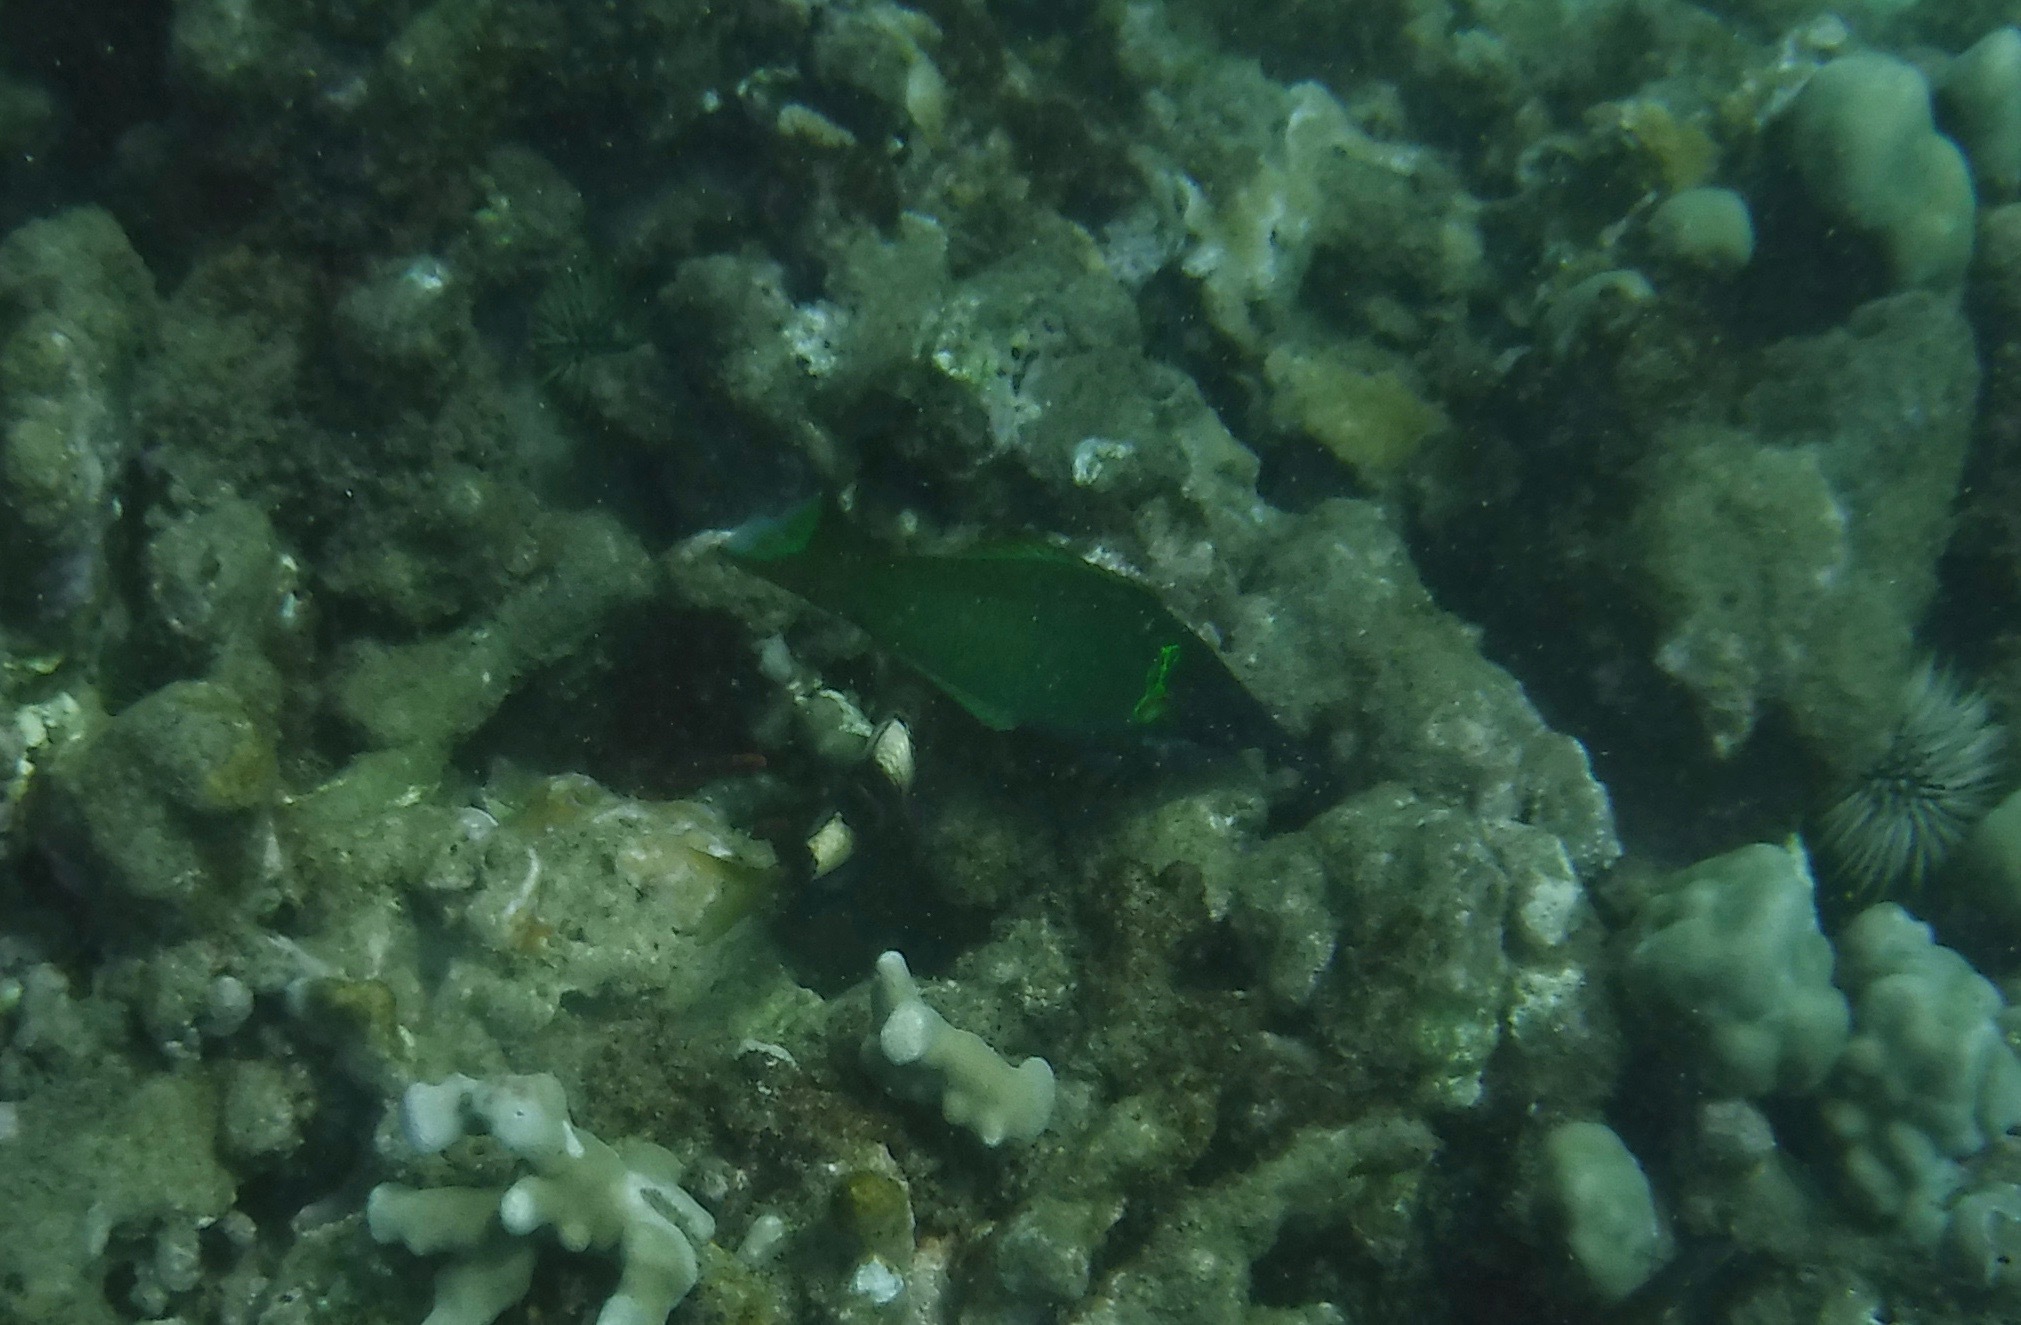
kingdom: Animalia
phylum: Chordata
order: Perciformes
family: Labridae
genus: Gomphosus
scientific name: Gomphosus varius
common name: Bird wrasse
